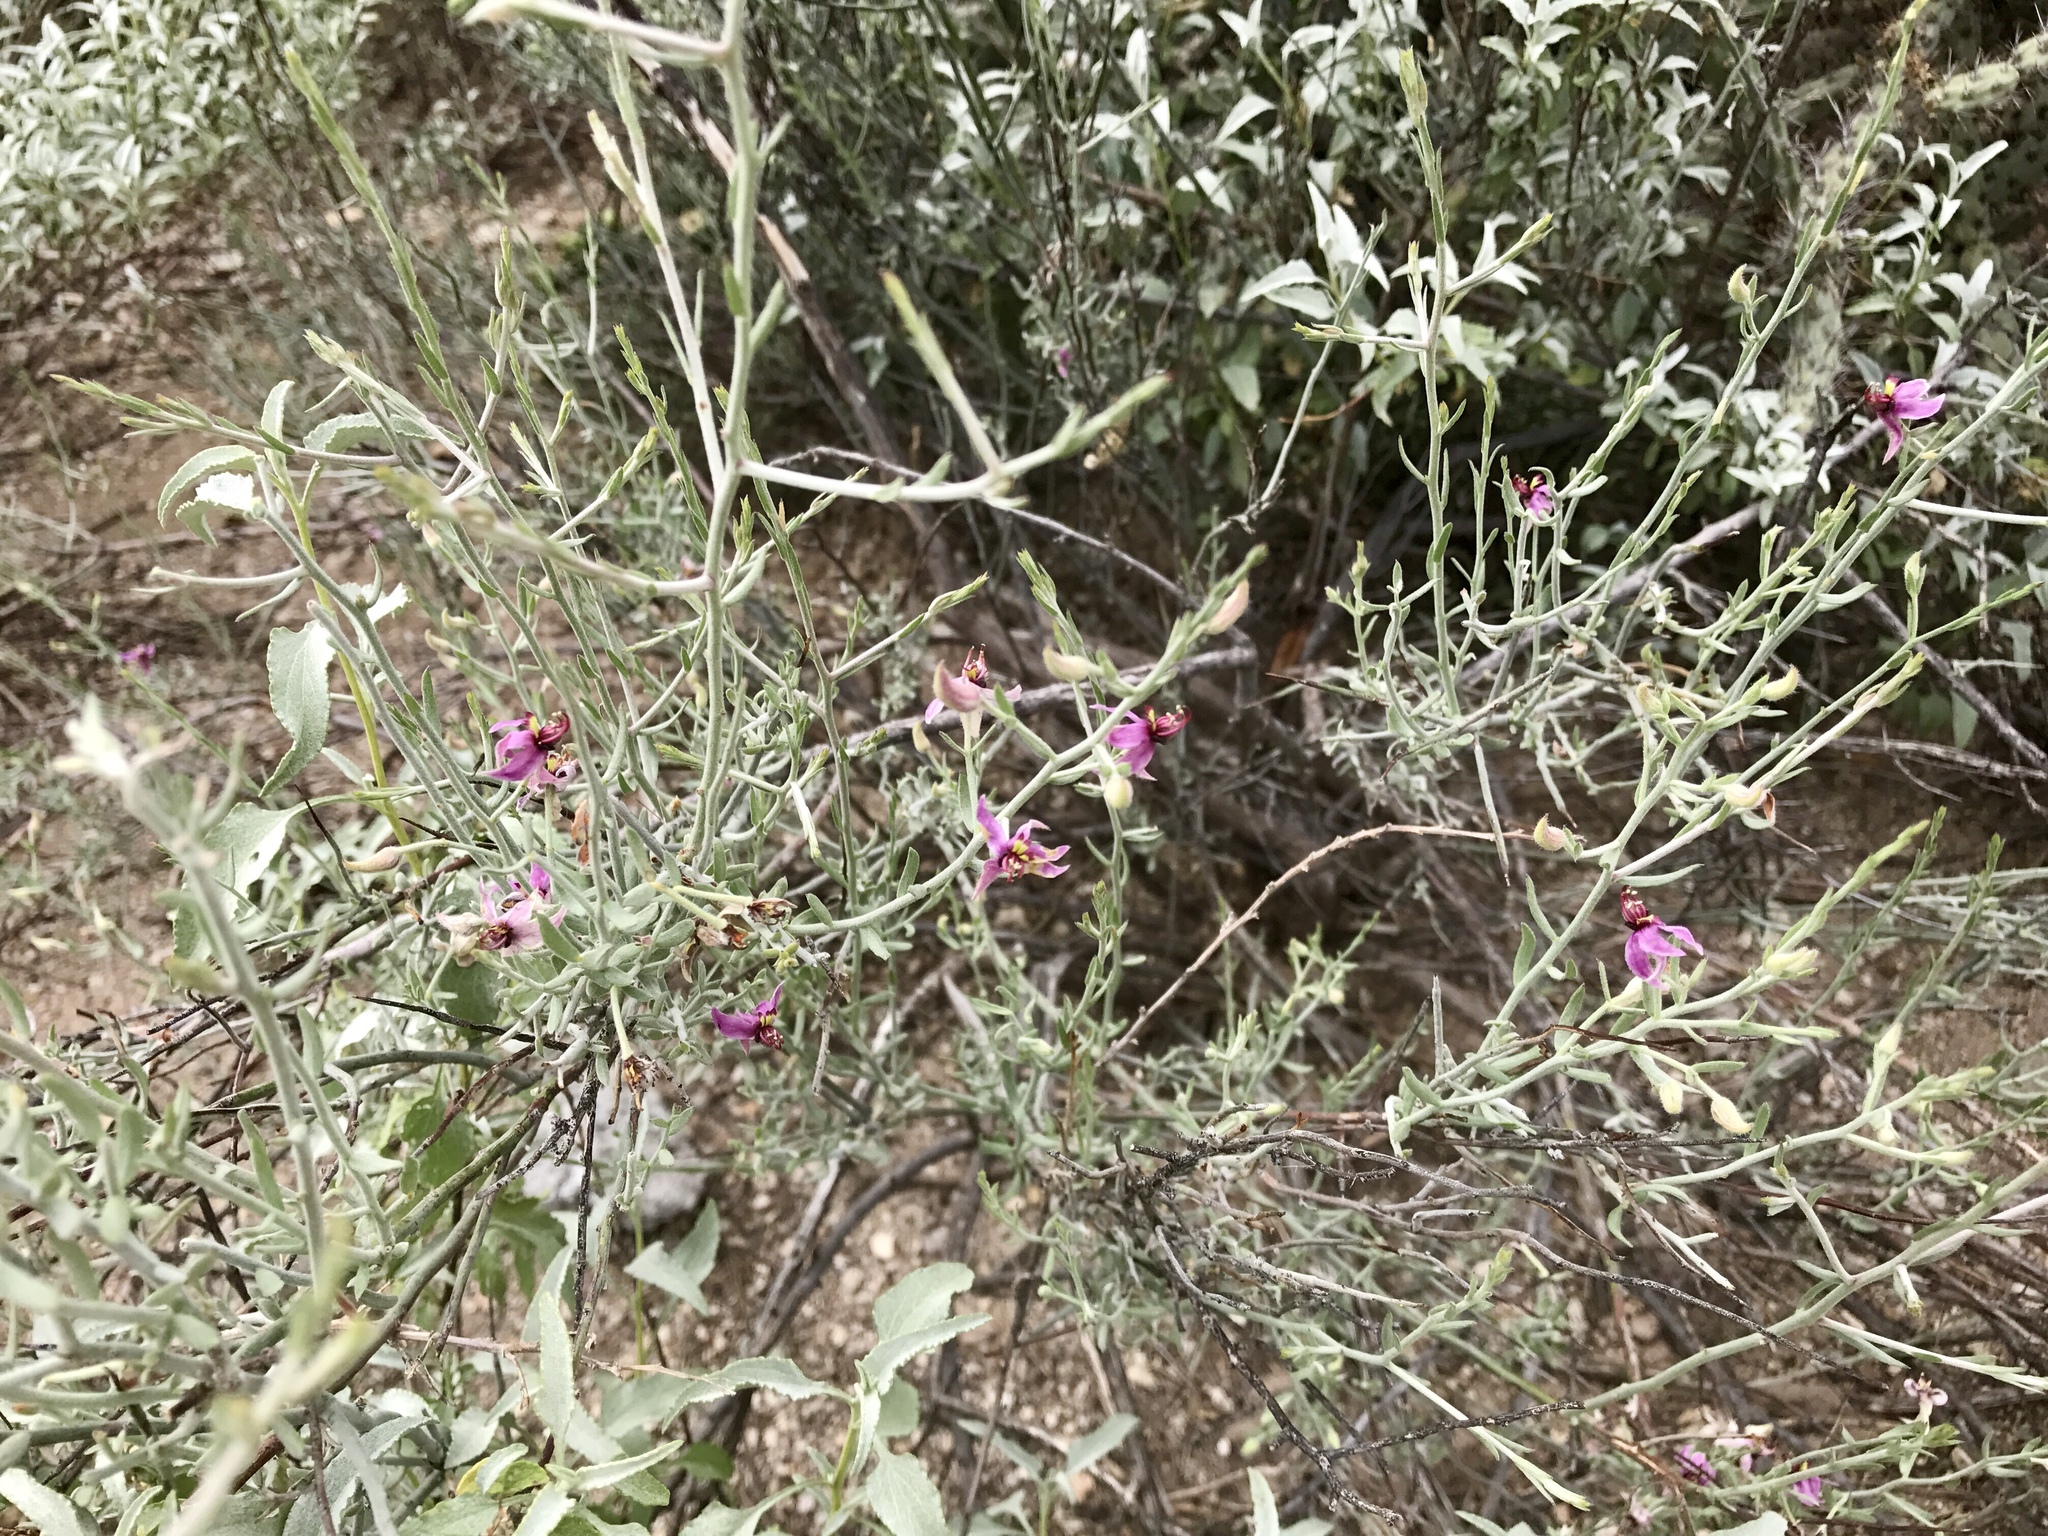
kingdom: Plantae
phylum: Tracheophyta
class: Magnoliopsida
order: Zygophyllales
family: Krameriaceae
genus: Krameria
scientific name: Krameria bicolor
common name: White ratany
